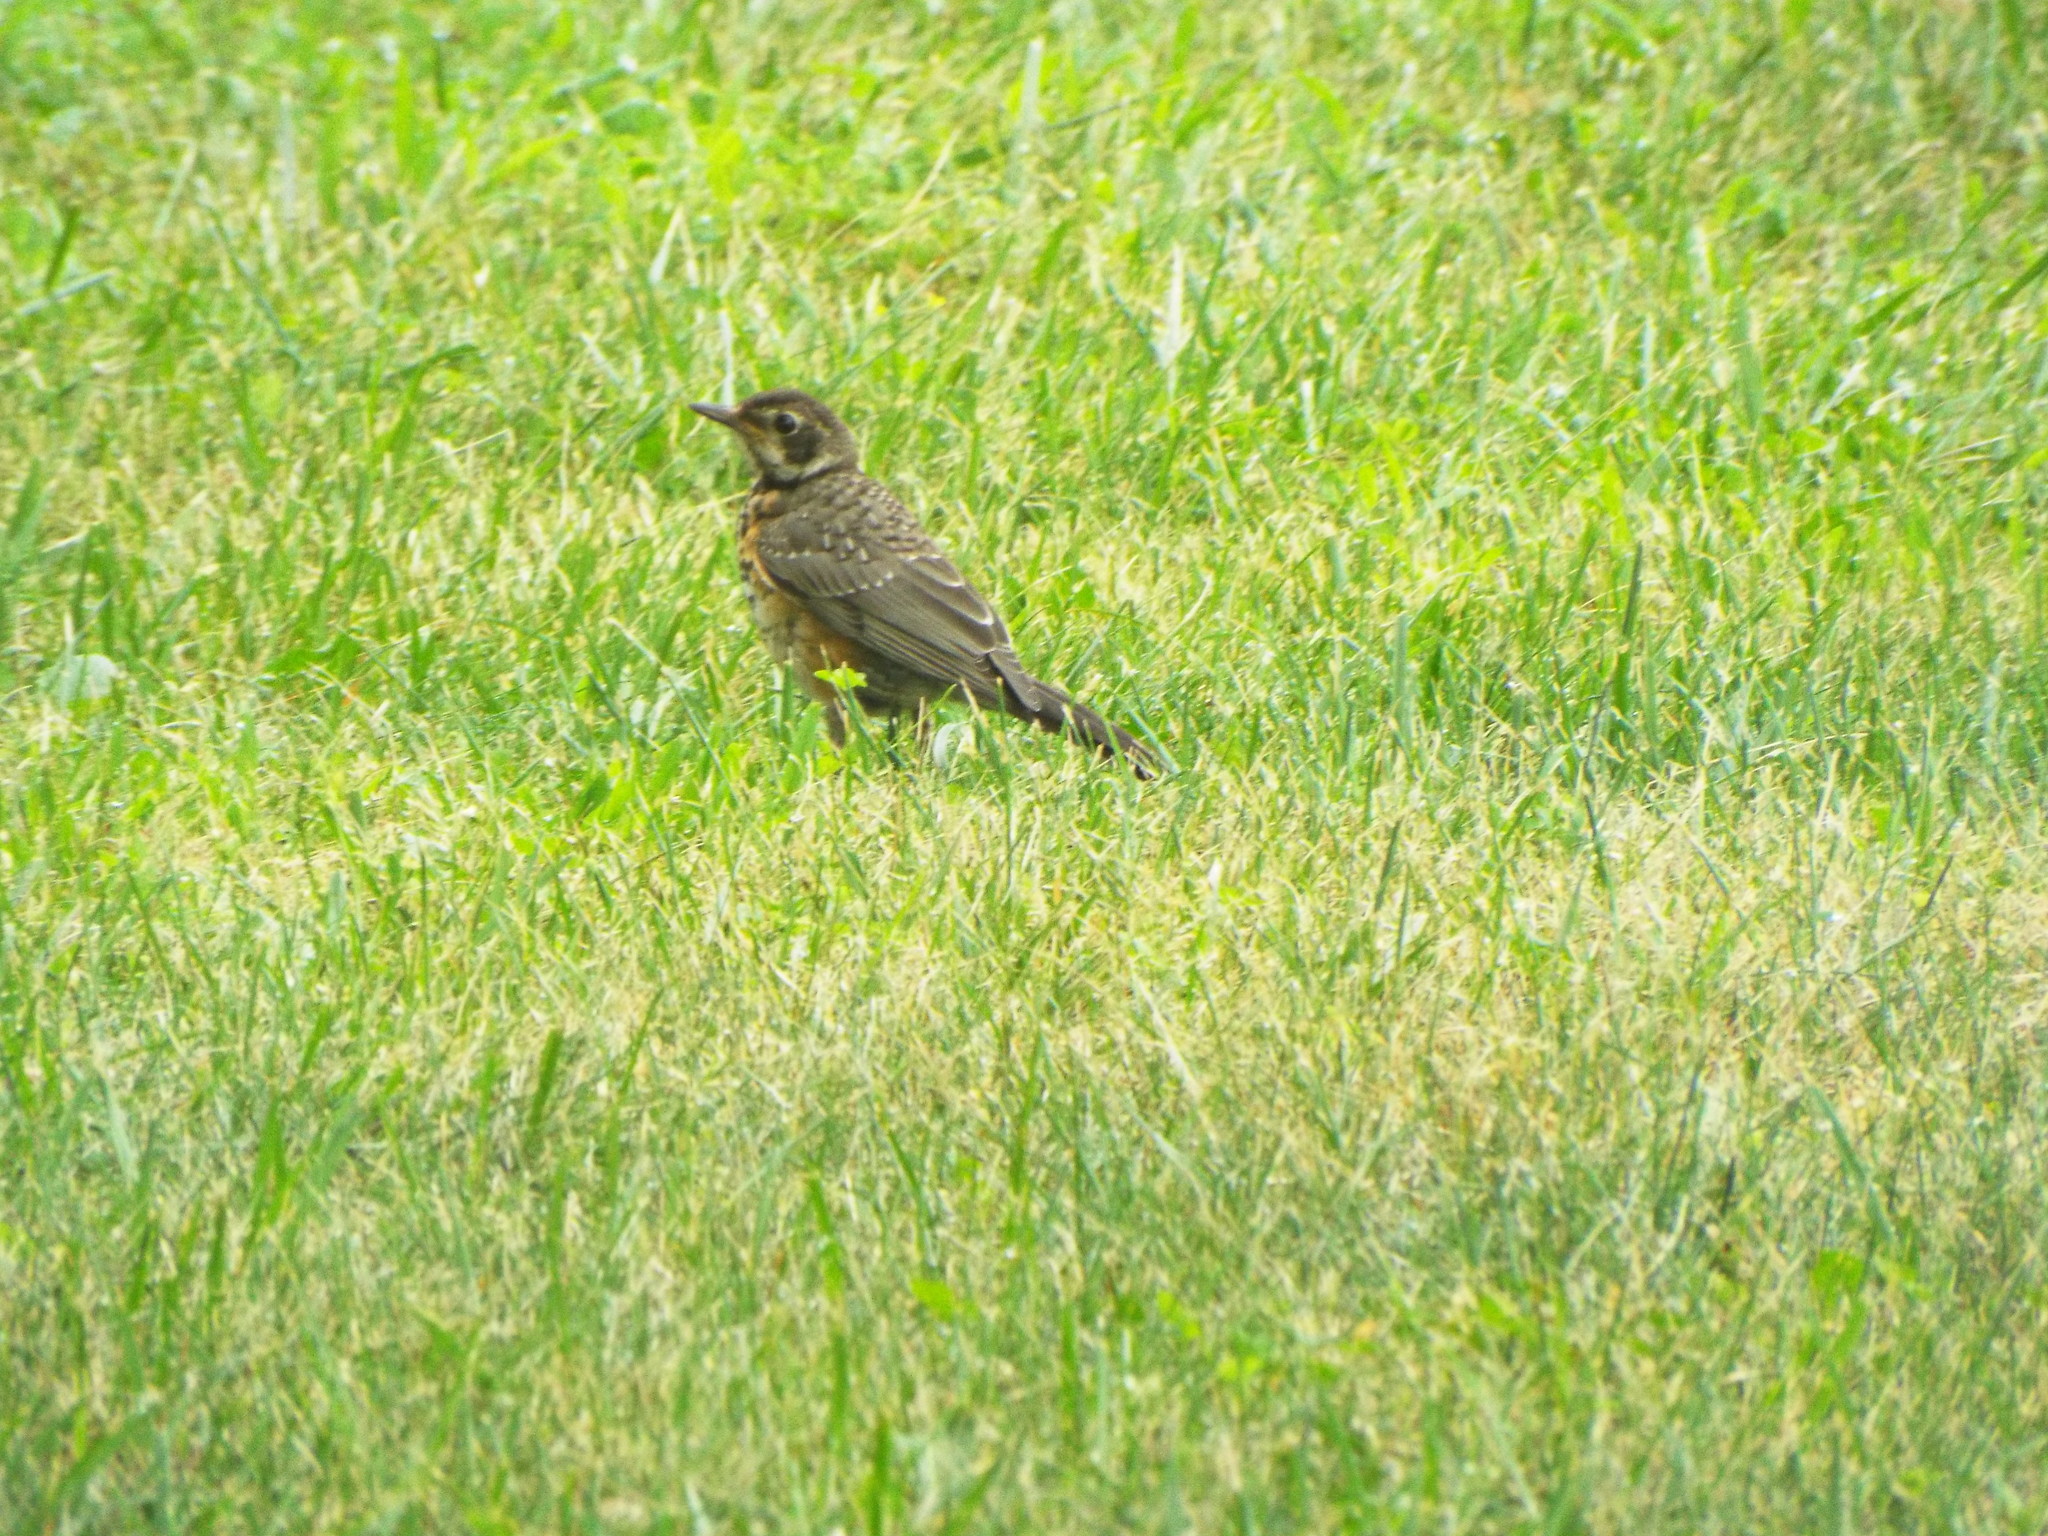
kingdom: Animalia
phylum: Chordata
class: Aves
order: Passeriformes
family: Turdidae
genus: Turdus
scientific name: Turdus migratorius
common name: American robin
